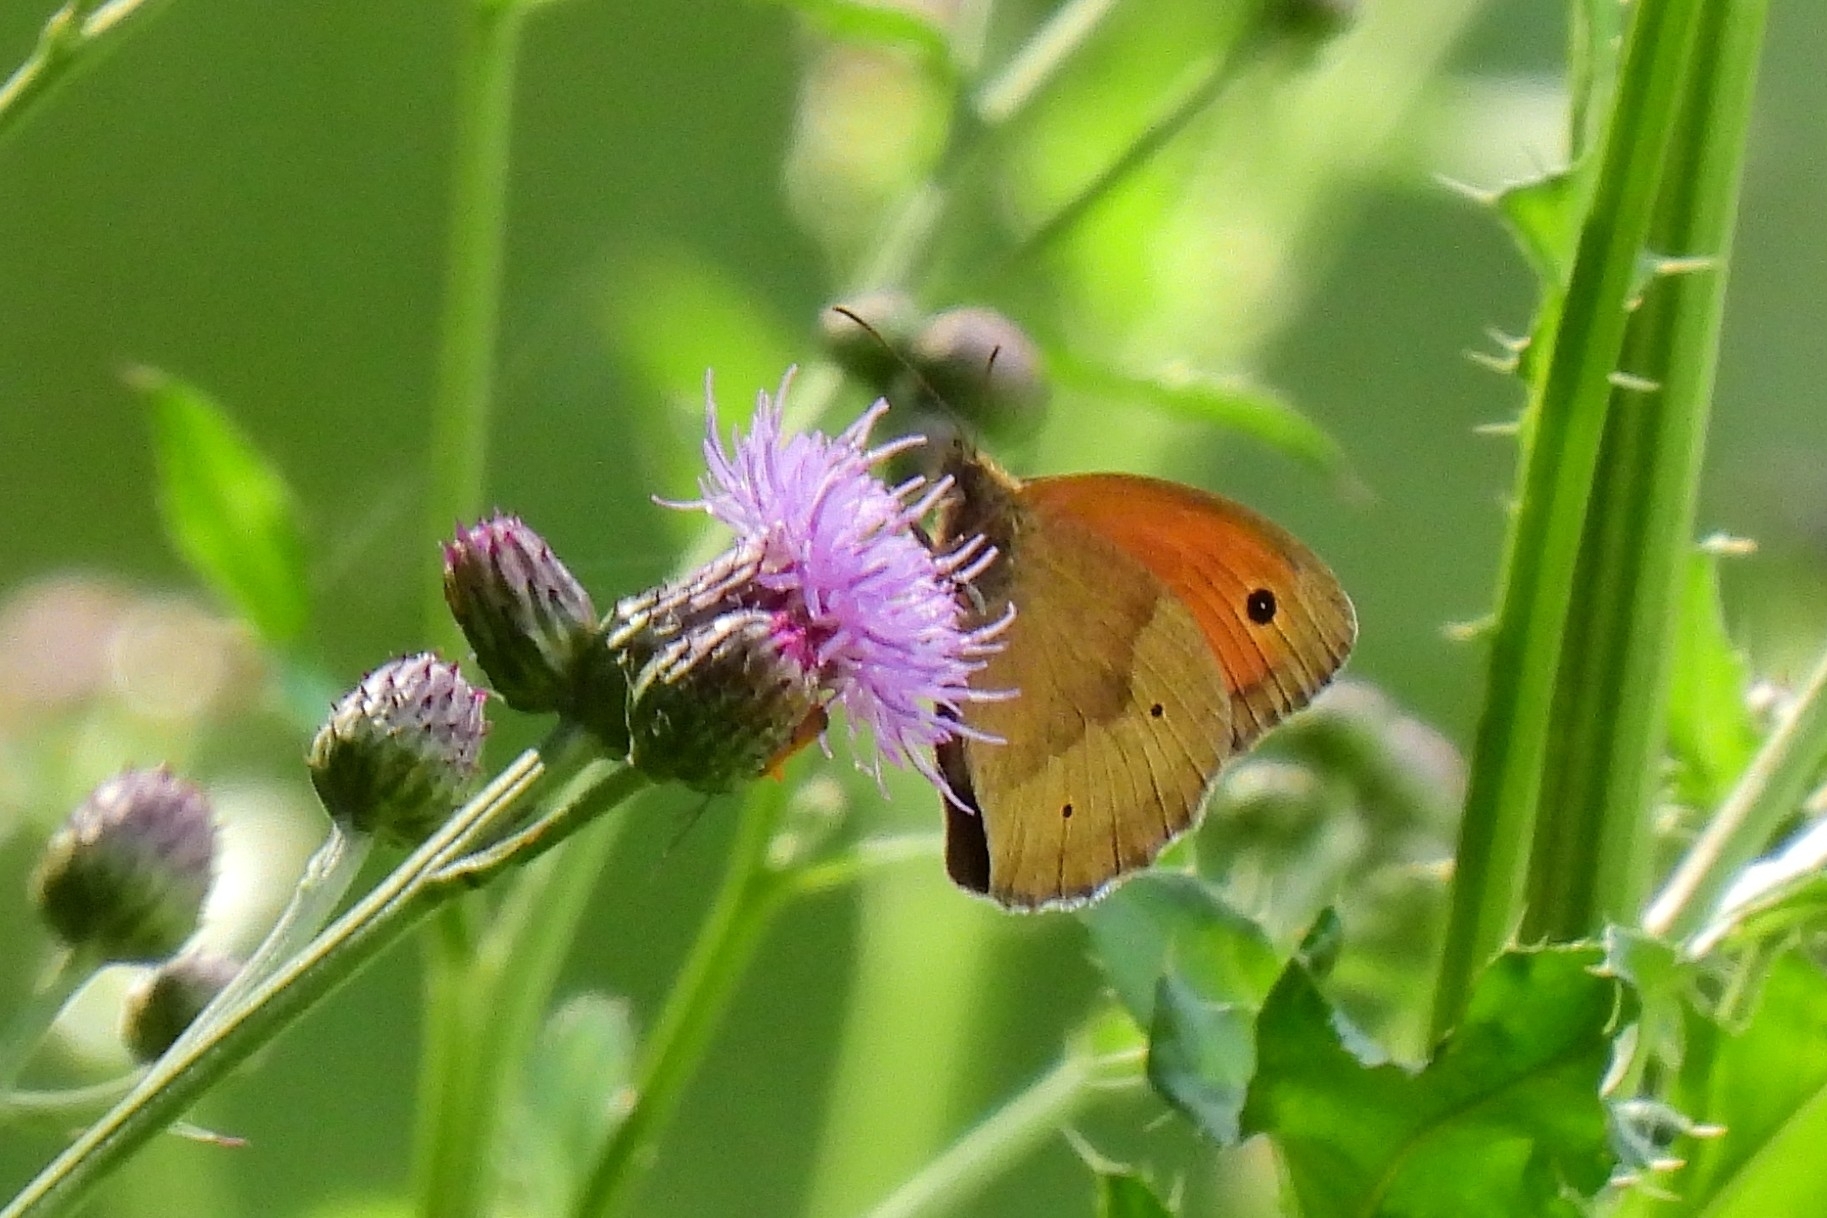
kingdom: Animalia
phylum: Arthropoda
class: Insecta
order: Lepidoptera
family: Nymphalidae
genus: Maniola
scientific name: Maniola jurtina
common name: Meadow brown
